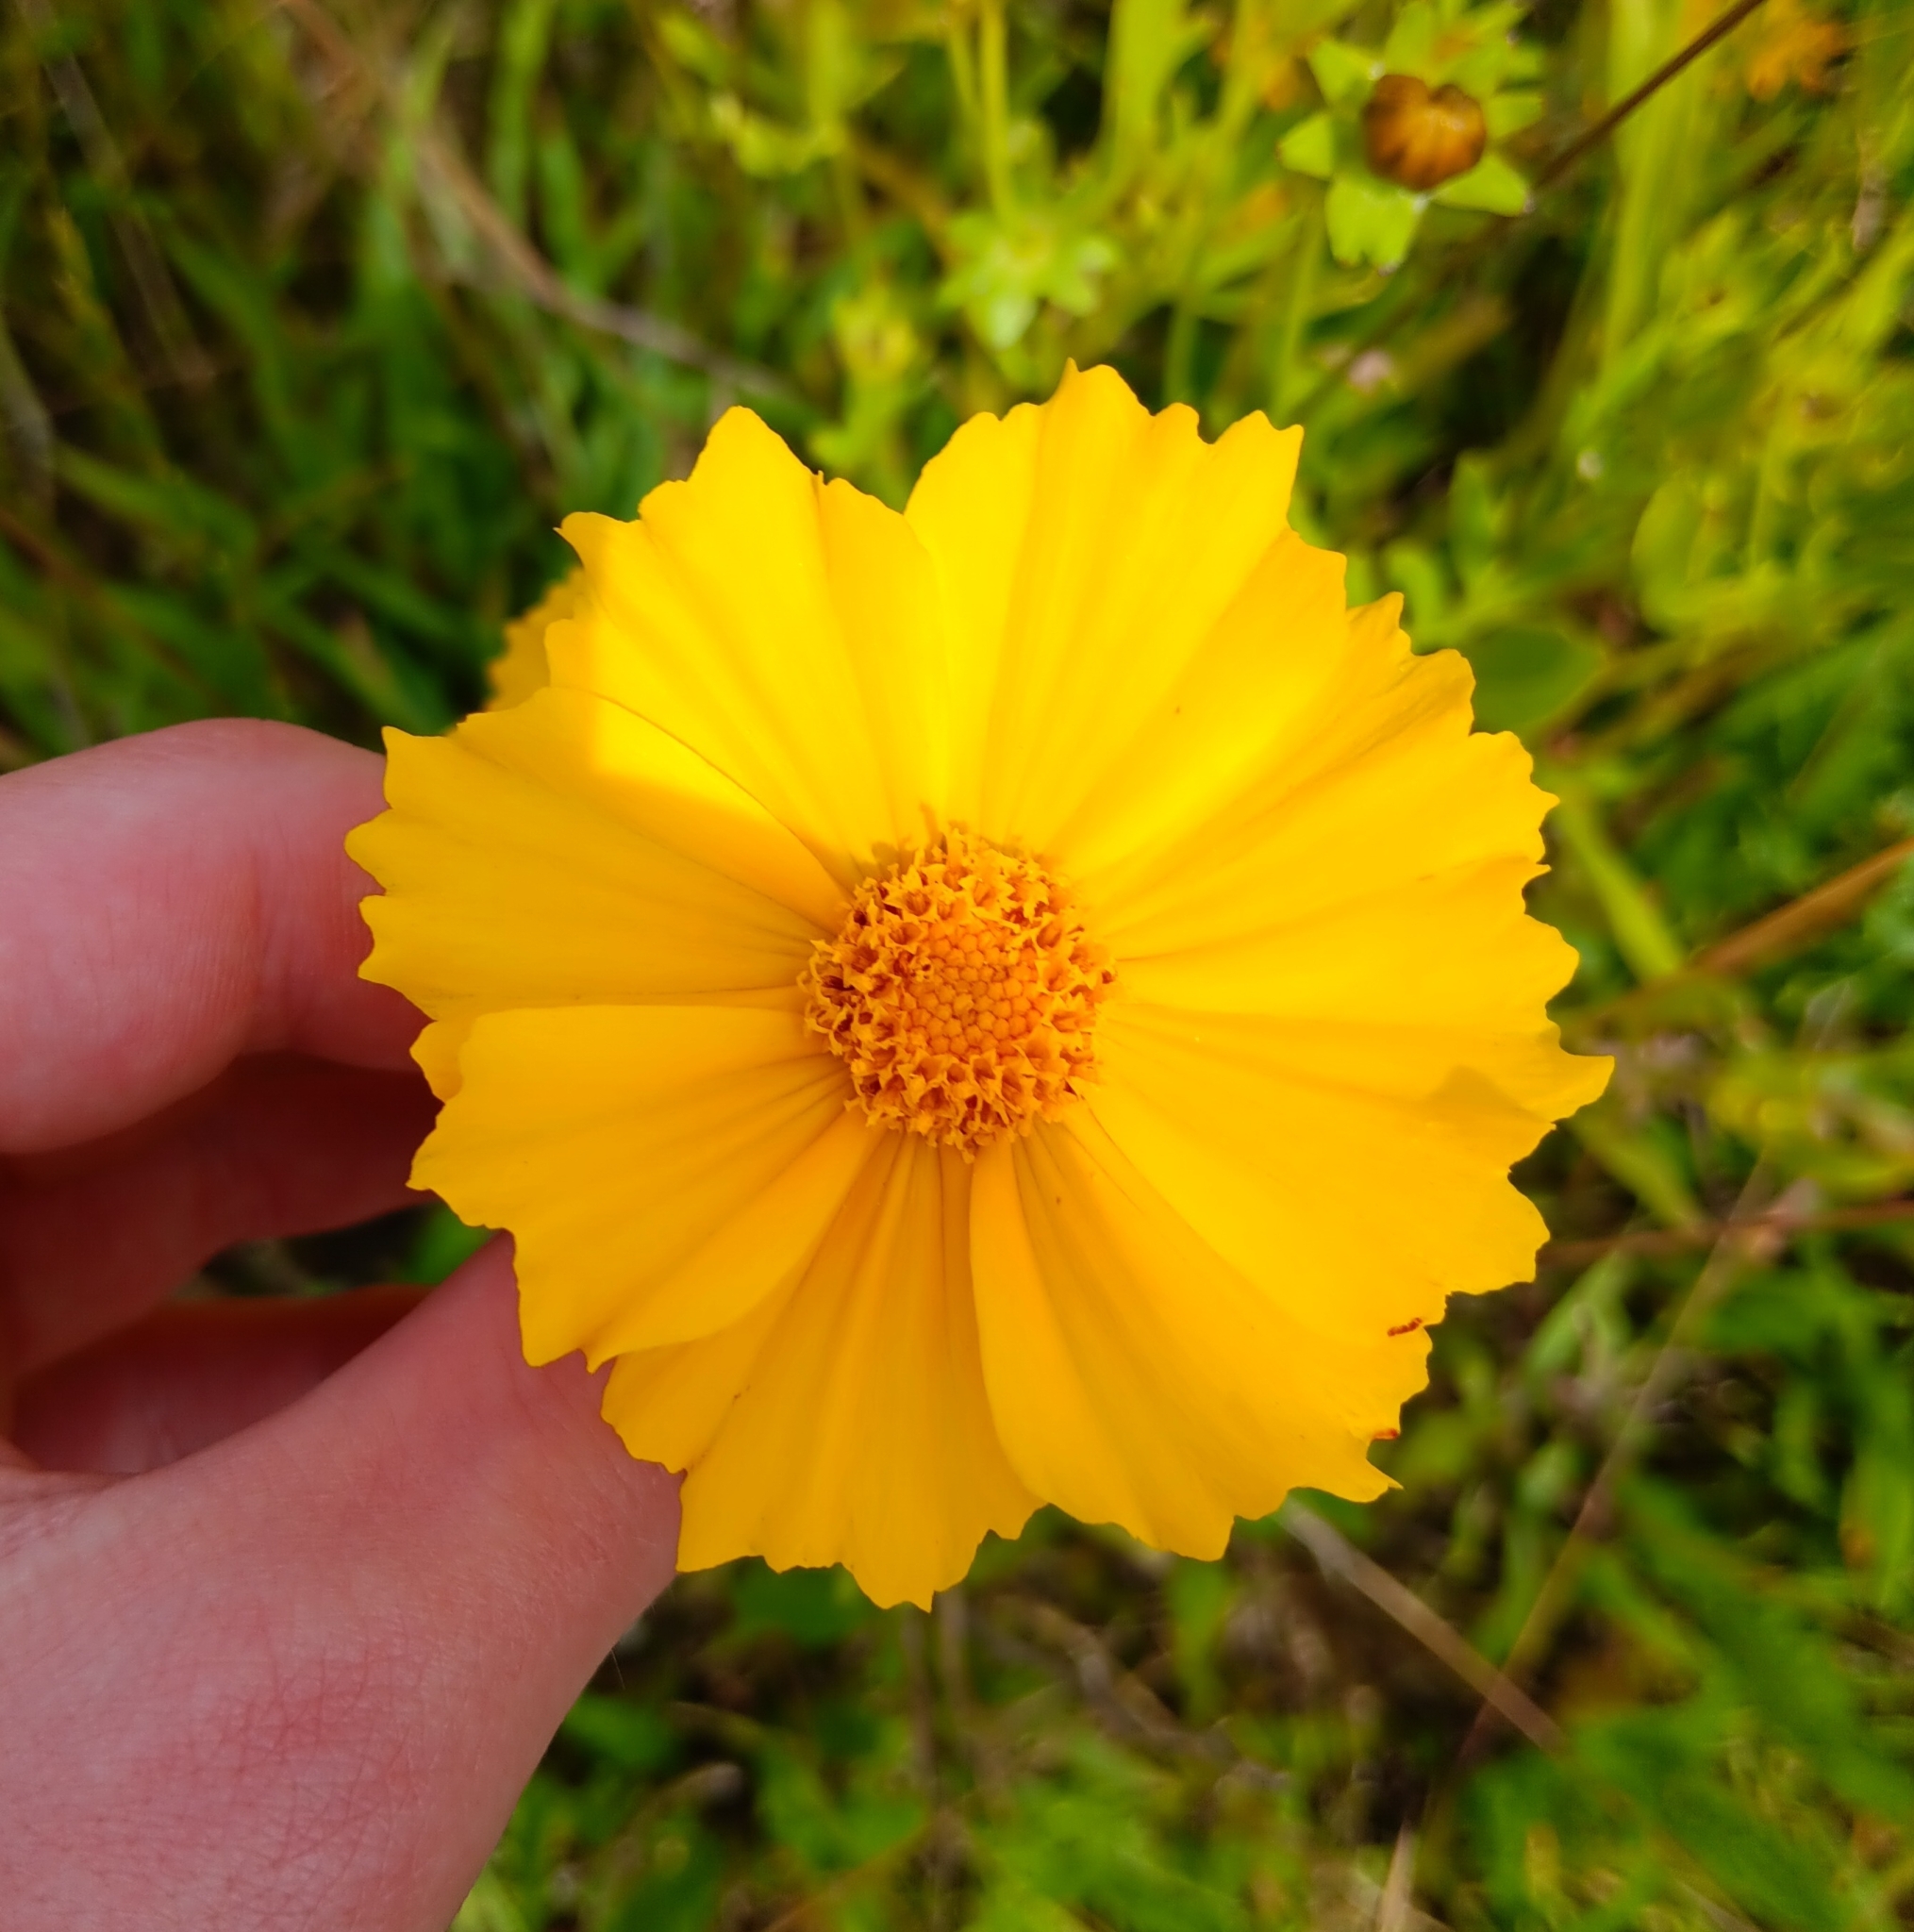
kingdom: Plantae
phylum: Tracheophyta
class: Magnoliopsida
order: Asterales
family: Asteraceae
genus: Coreopsis
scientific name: Coreopsis lanceolata
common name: Garden coreopsis
